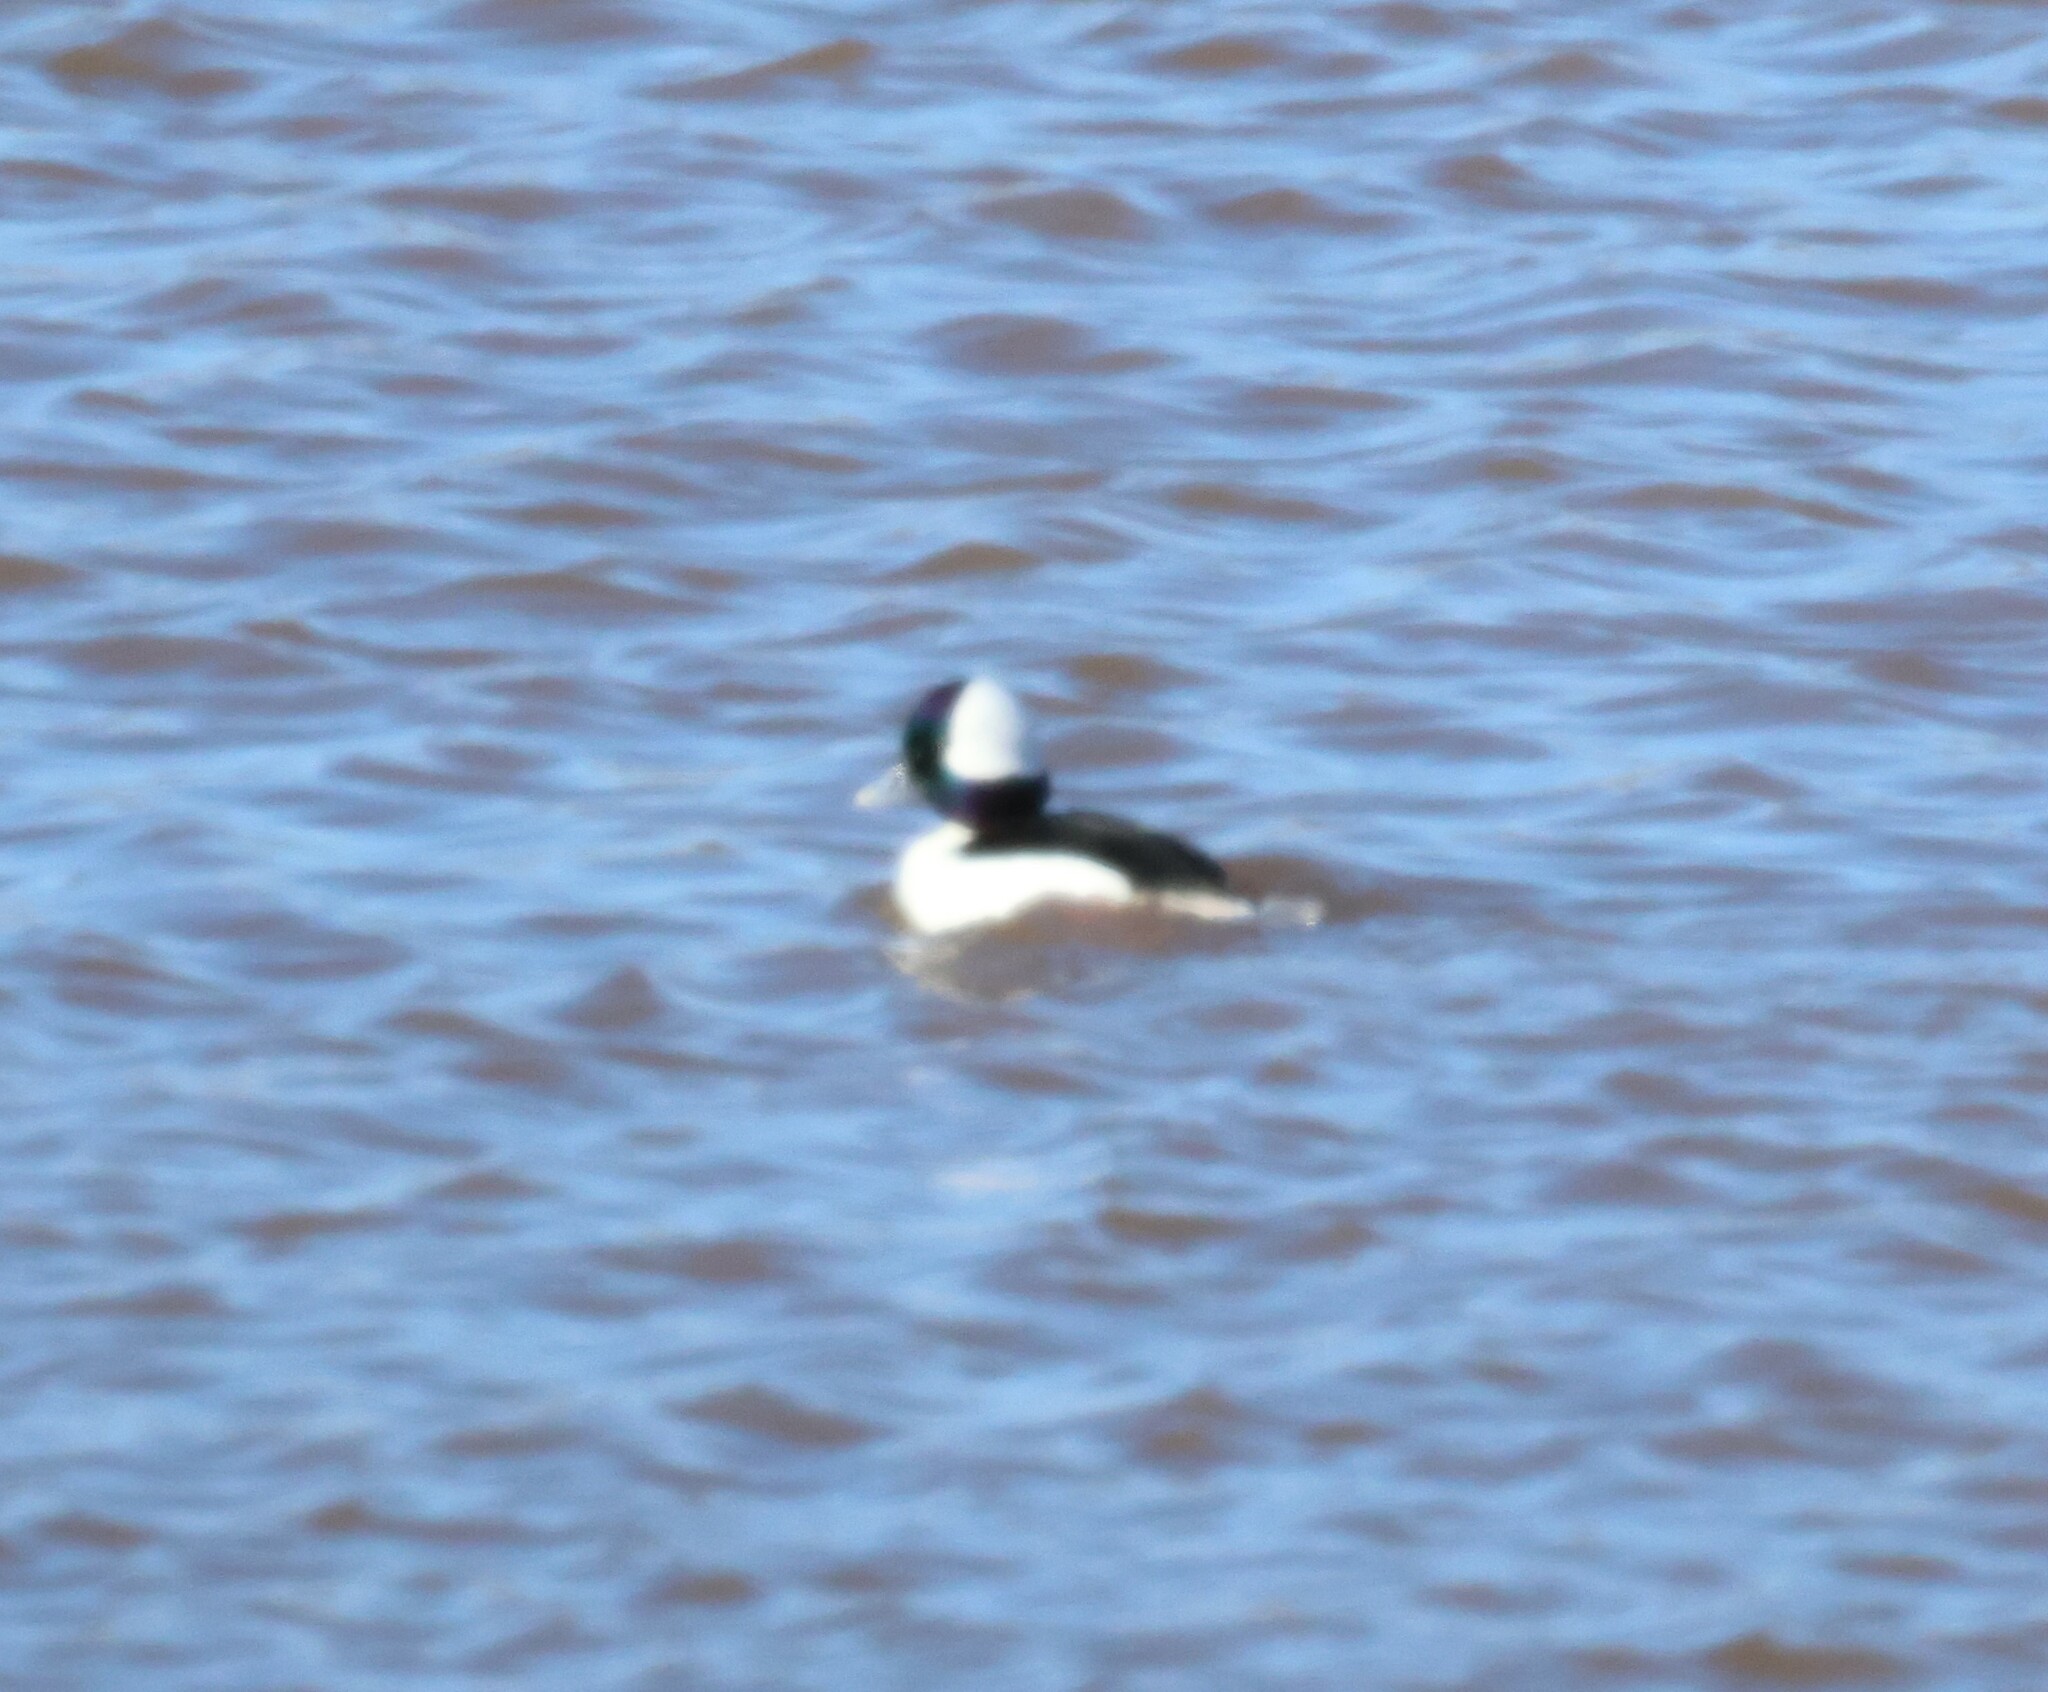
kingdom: Animalia
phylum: Chordata
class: Aves
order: Anseriformes
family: Anatidae
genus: Bucephala
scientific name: Bucephala albeola
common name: Bufflehead
